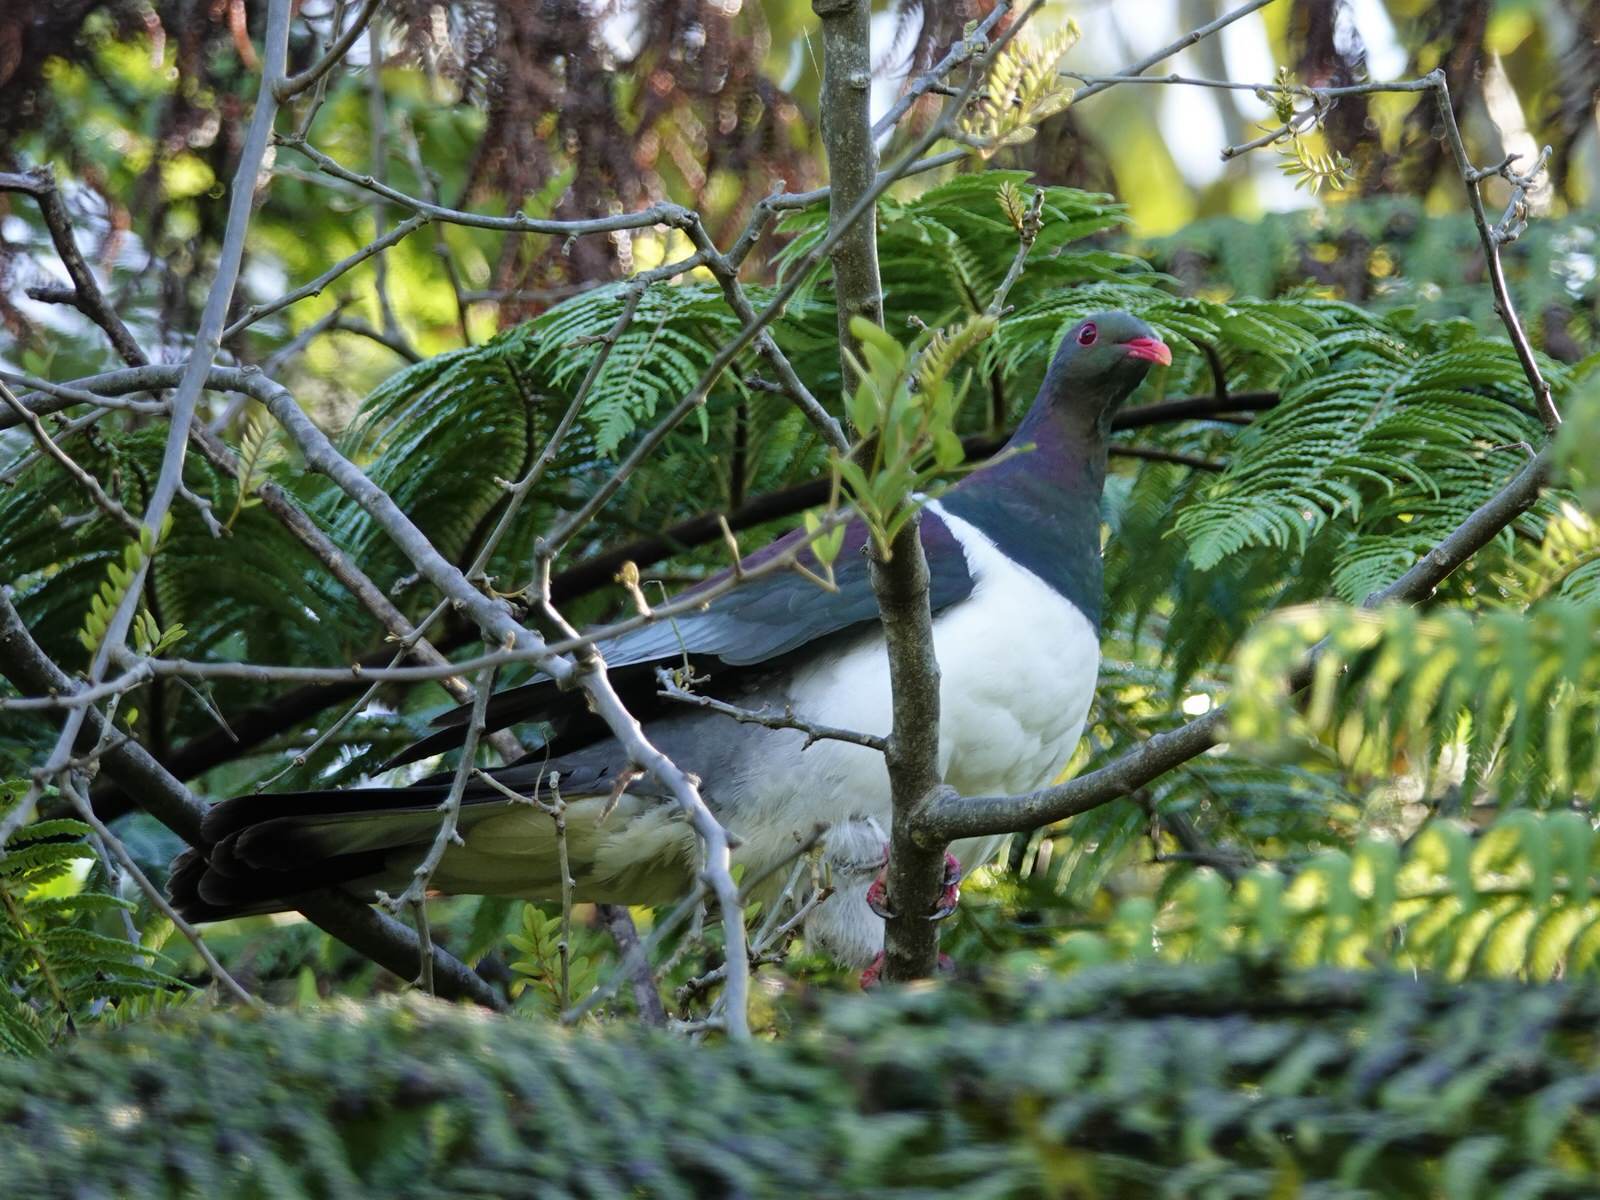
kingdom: Animalia
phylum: Chordata
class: Aves
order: Columbiformes
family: Columbidae
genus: Hemiphaga
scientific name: Hemiphaga novaeseelandiae
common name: New zealand pigeon
